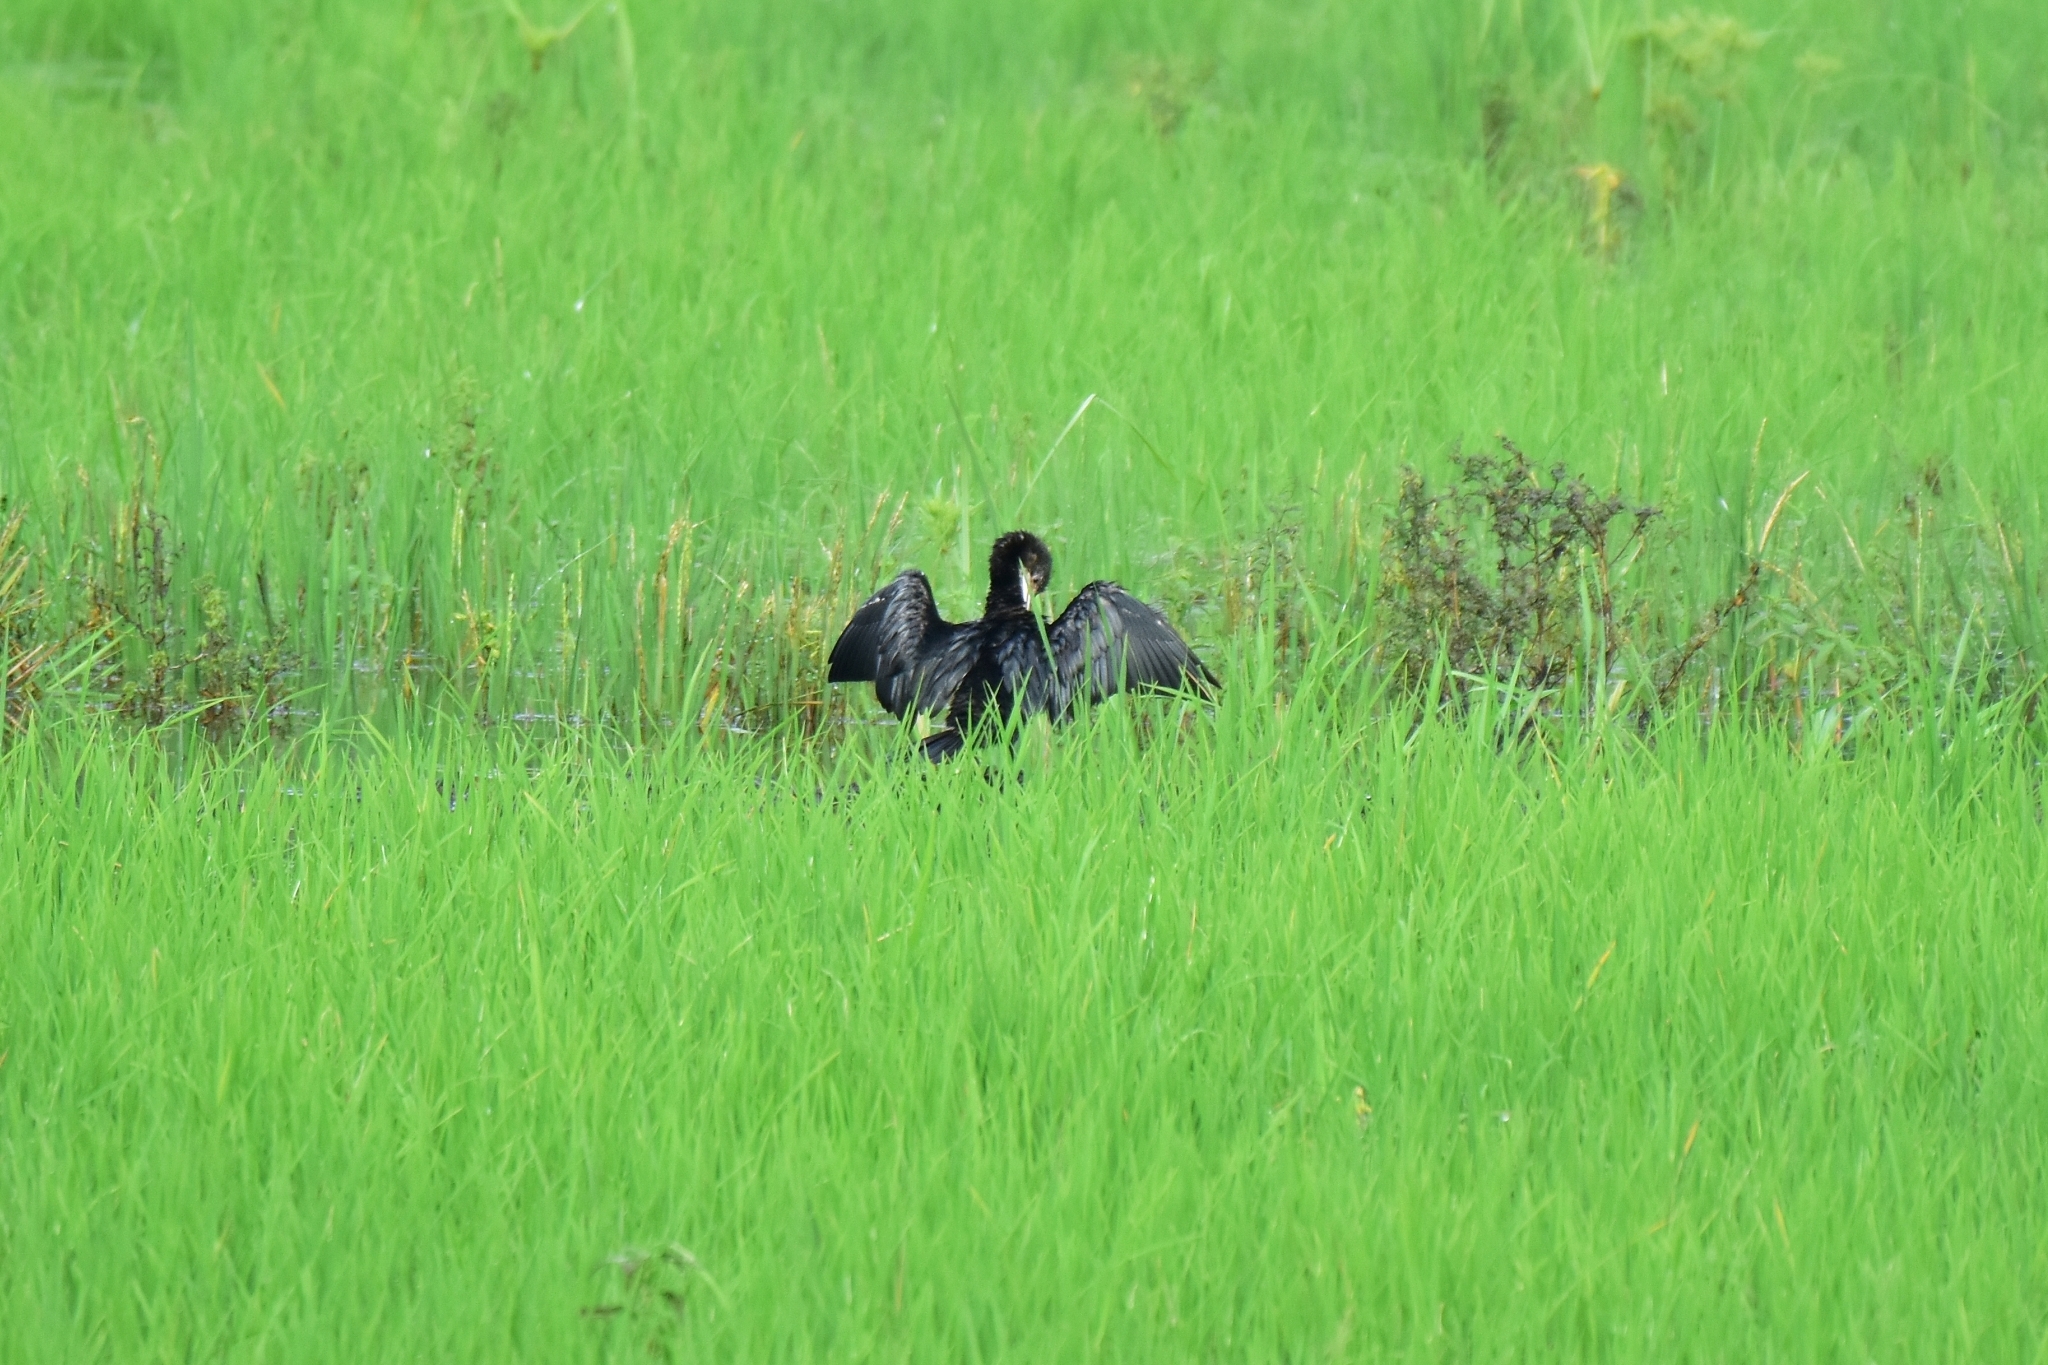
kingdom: Animalia
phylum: Chordata
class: Aves
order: Suliformes
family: Phalacrocoracidae
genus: Microcarbo
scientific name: Microcarbo niger
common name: Little cormorant
